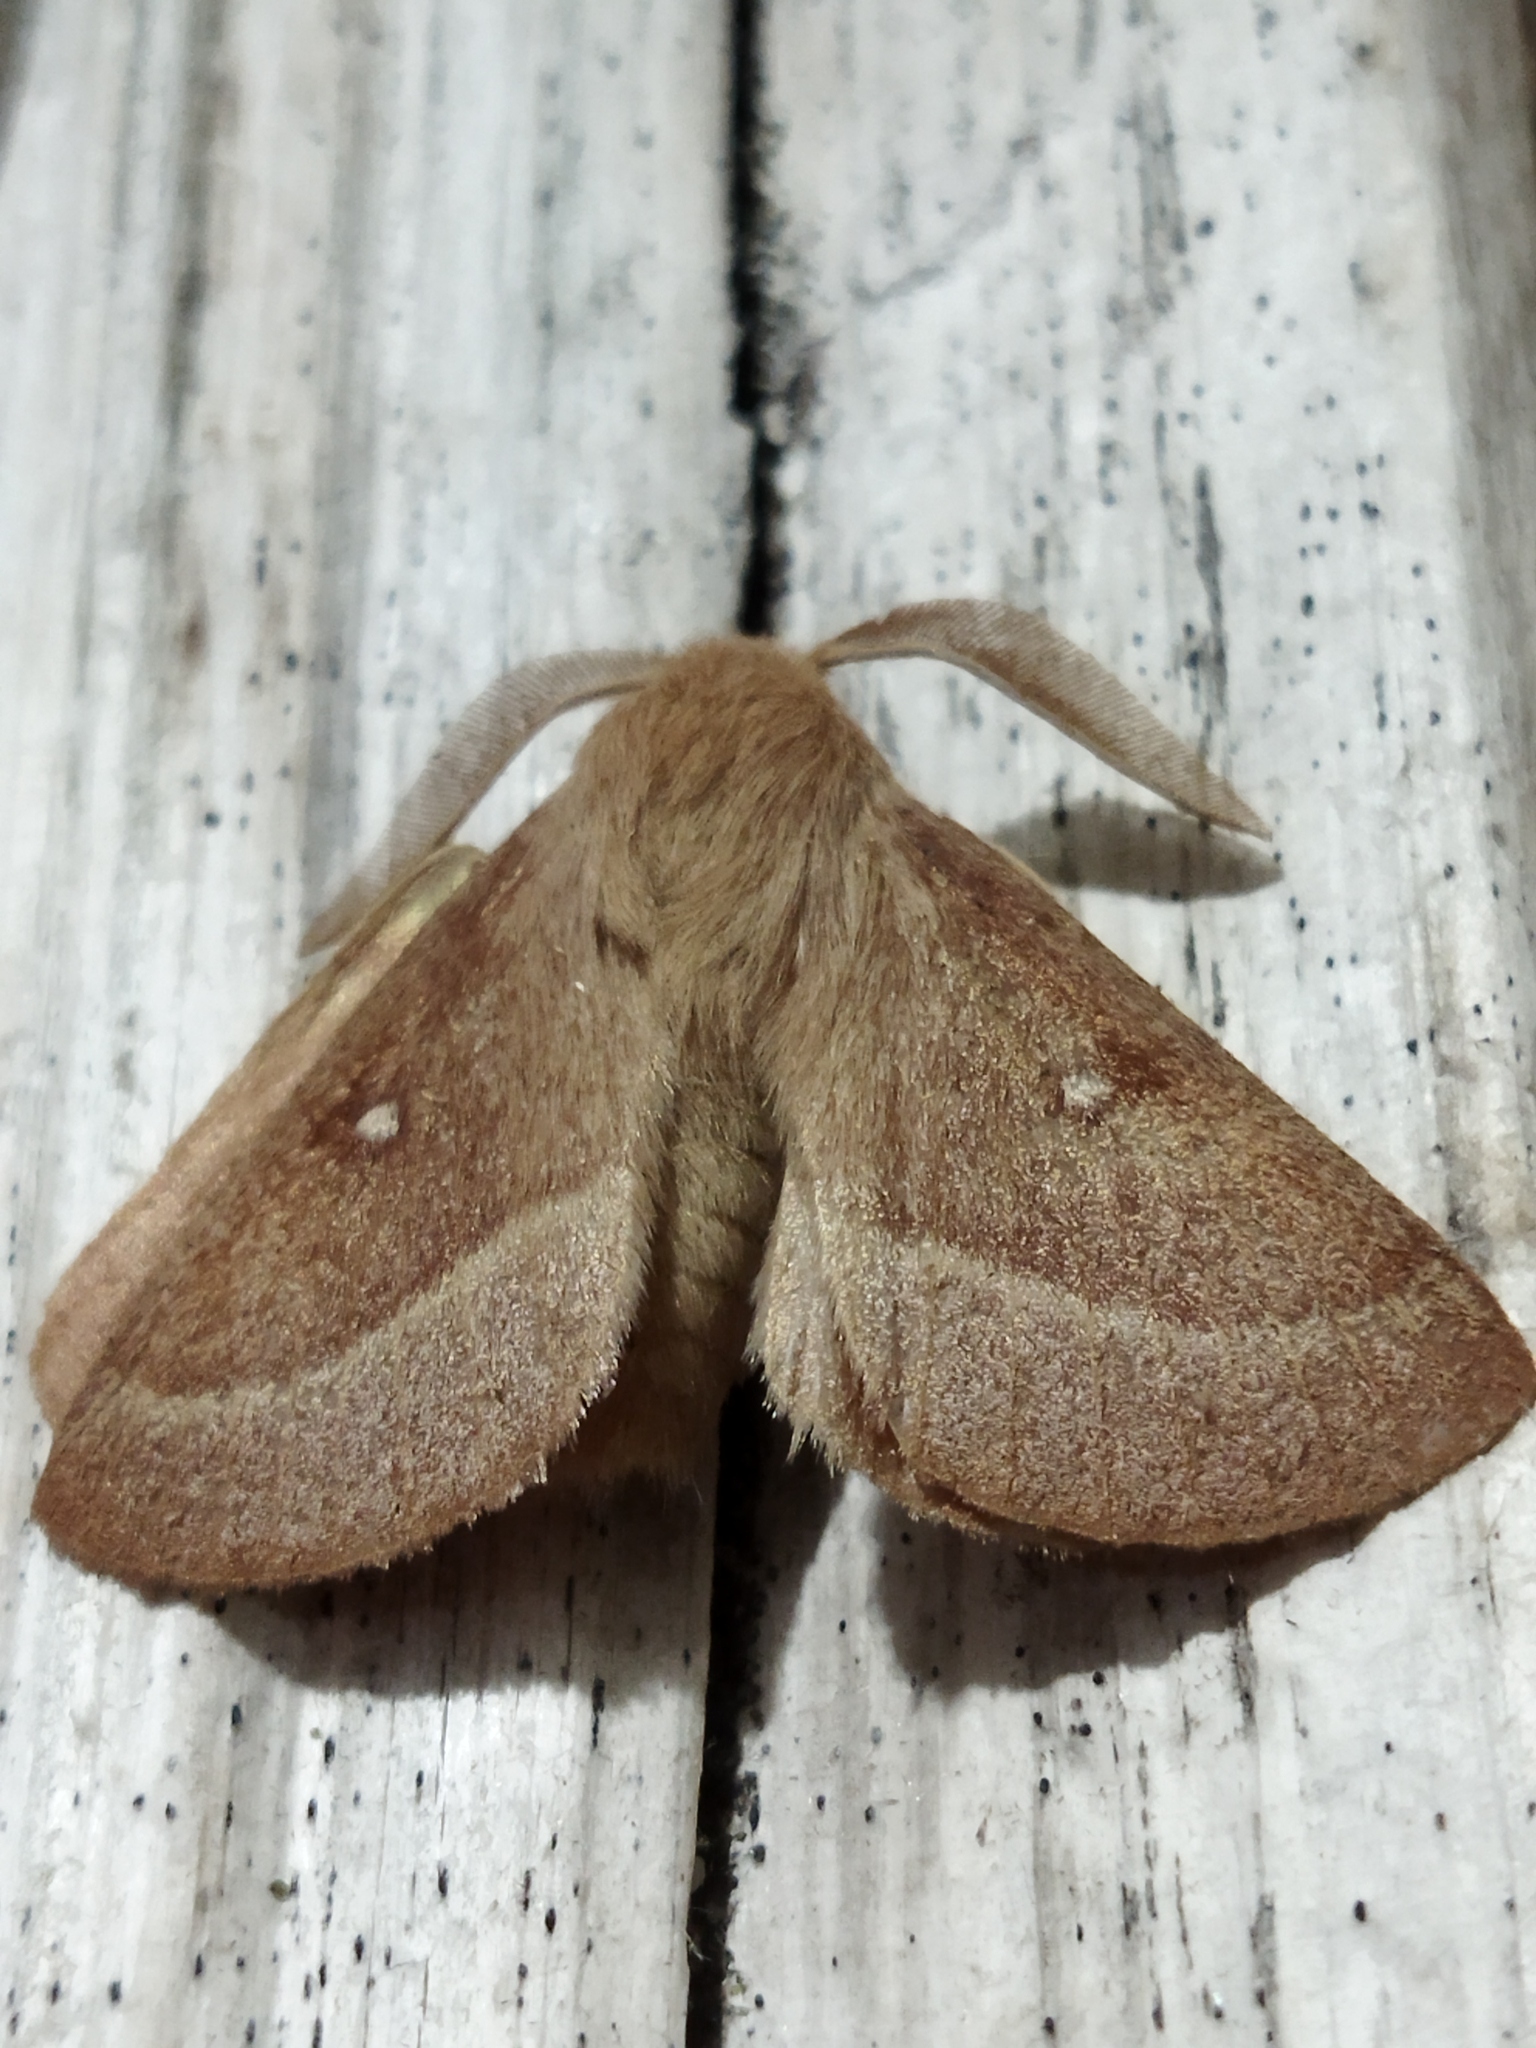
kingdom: Animalia
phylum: Arthropoda
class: Insecta
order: Lepidoptera
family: Lasiocampidae
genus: Lasiocampa
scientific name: Lasiocampa trifolii
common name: Grass eggar
